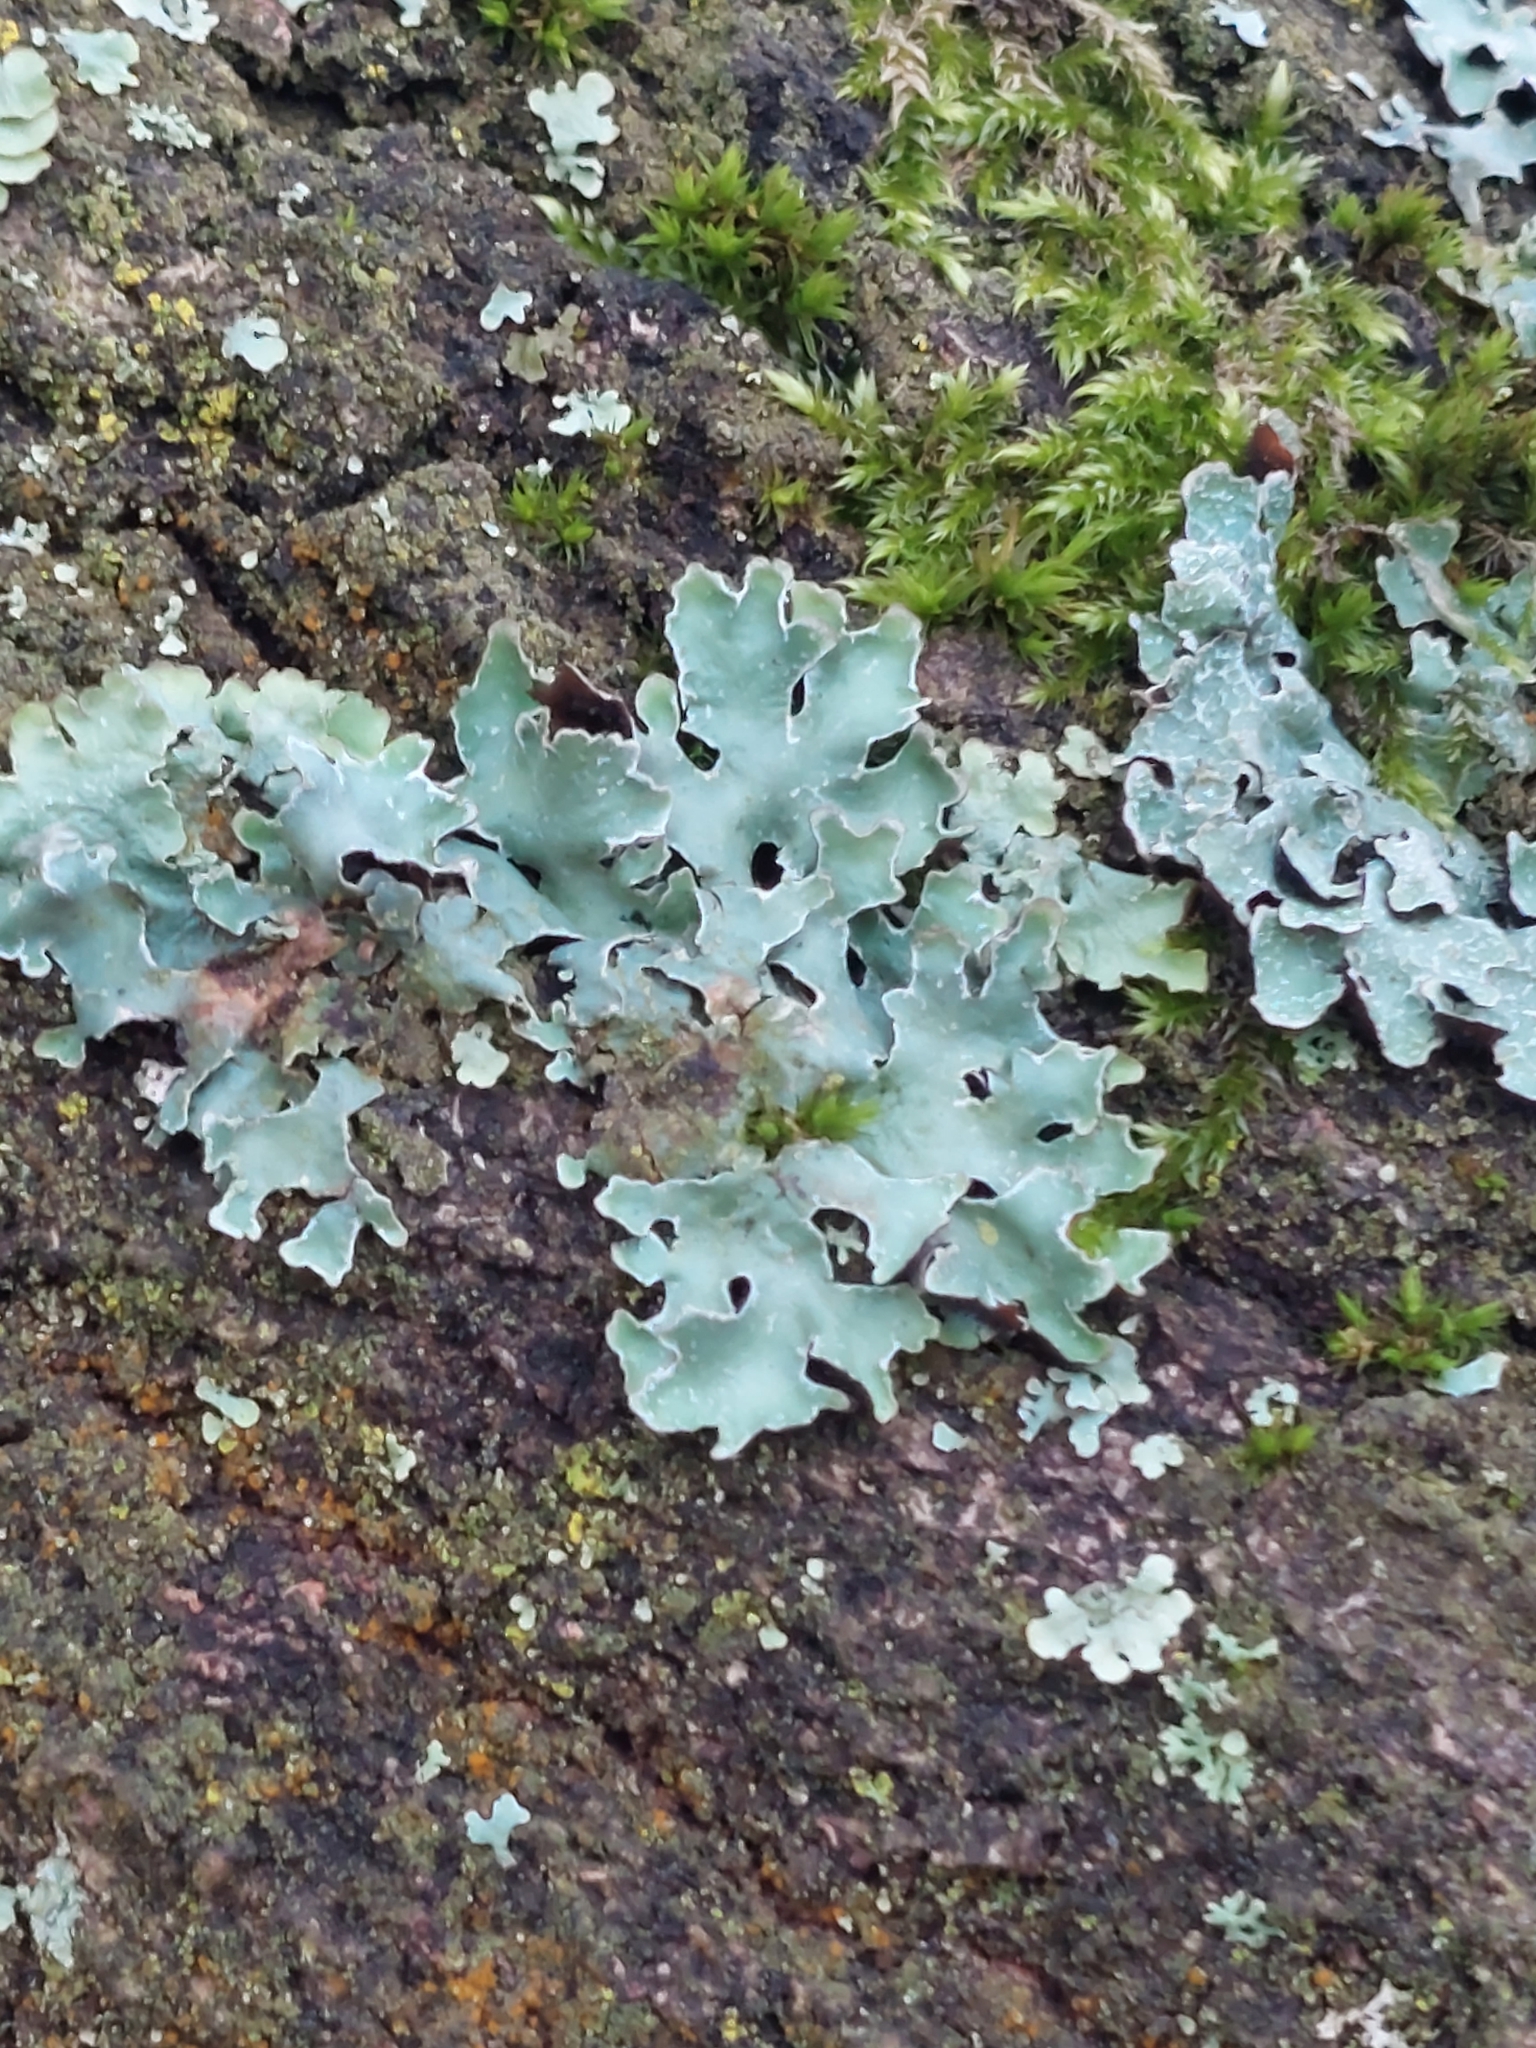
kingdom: Fungi
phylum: Ascomycota
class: Lecanoromycetes
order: Lecanorales
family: Parmeliaceae
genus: Parmelia
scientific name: Parmelia sulcata
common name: Netted shield lichen
